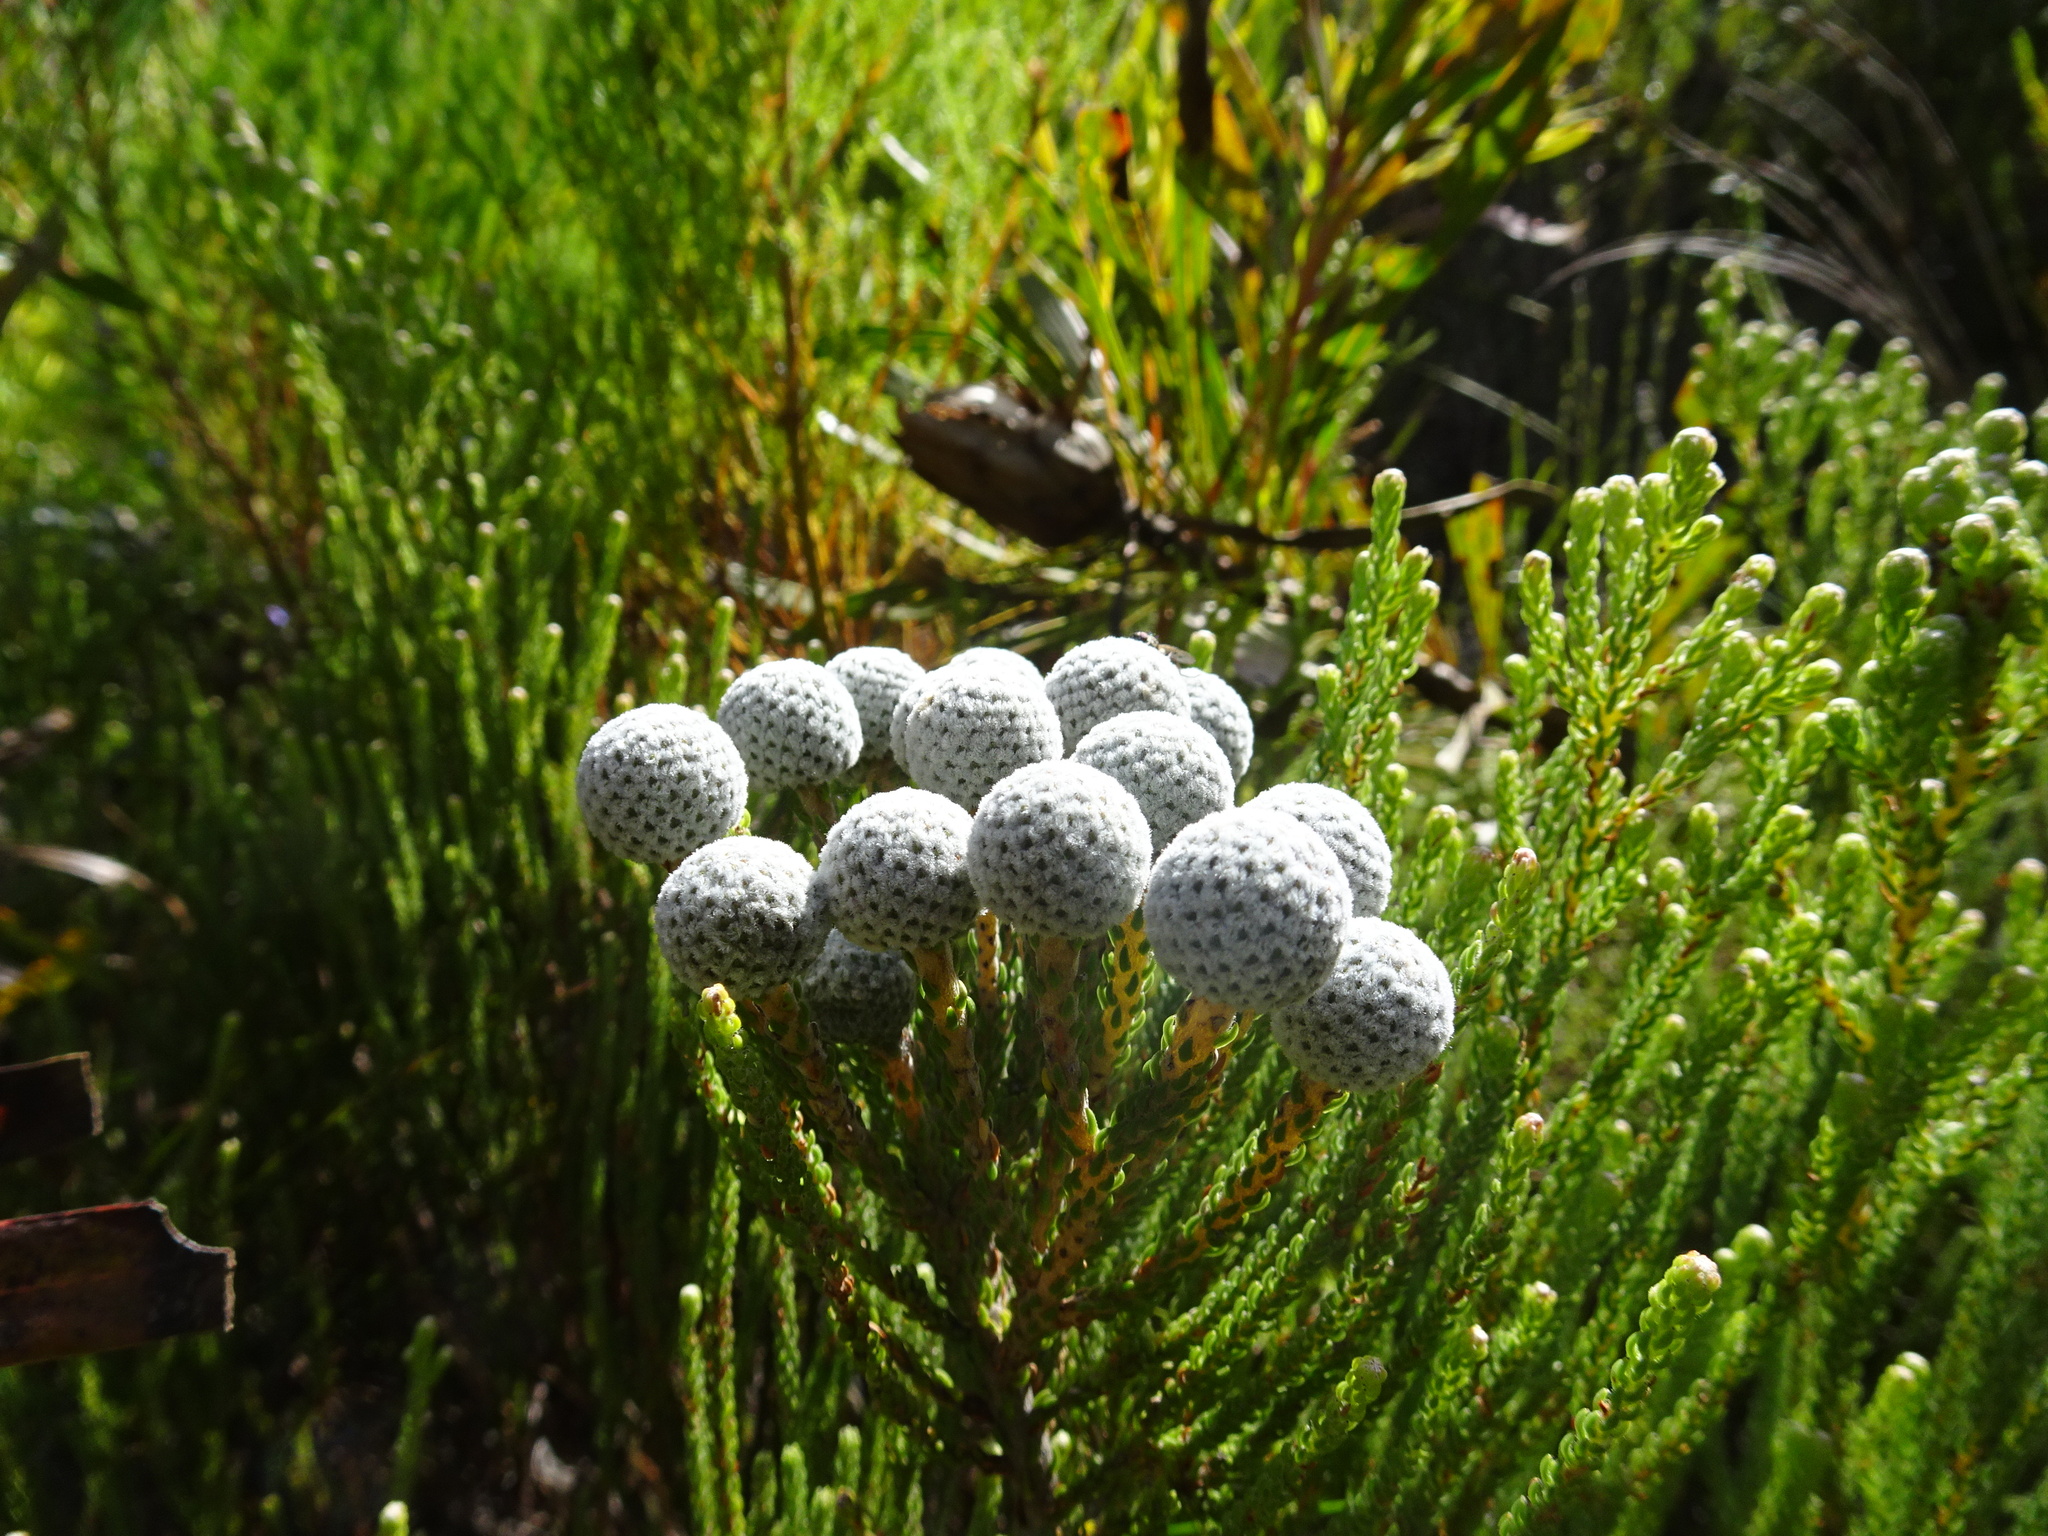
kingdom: Plantae
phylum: Tracheophyta
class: Magnoliopsida
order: Bruniales
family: Bruniaceae
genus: Brunia
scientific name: Brunia noduliflora
